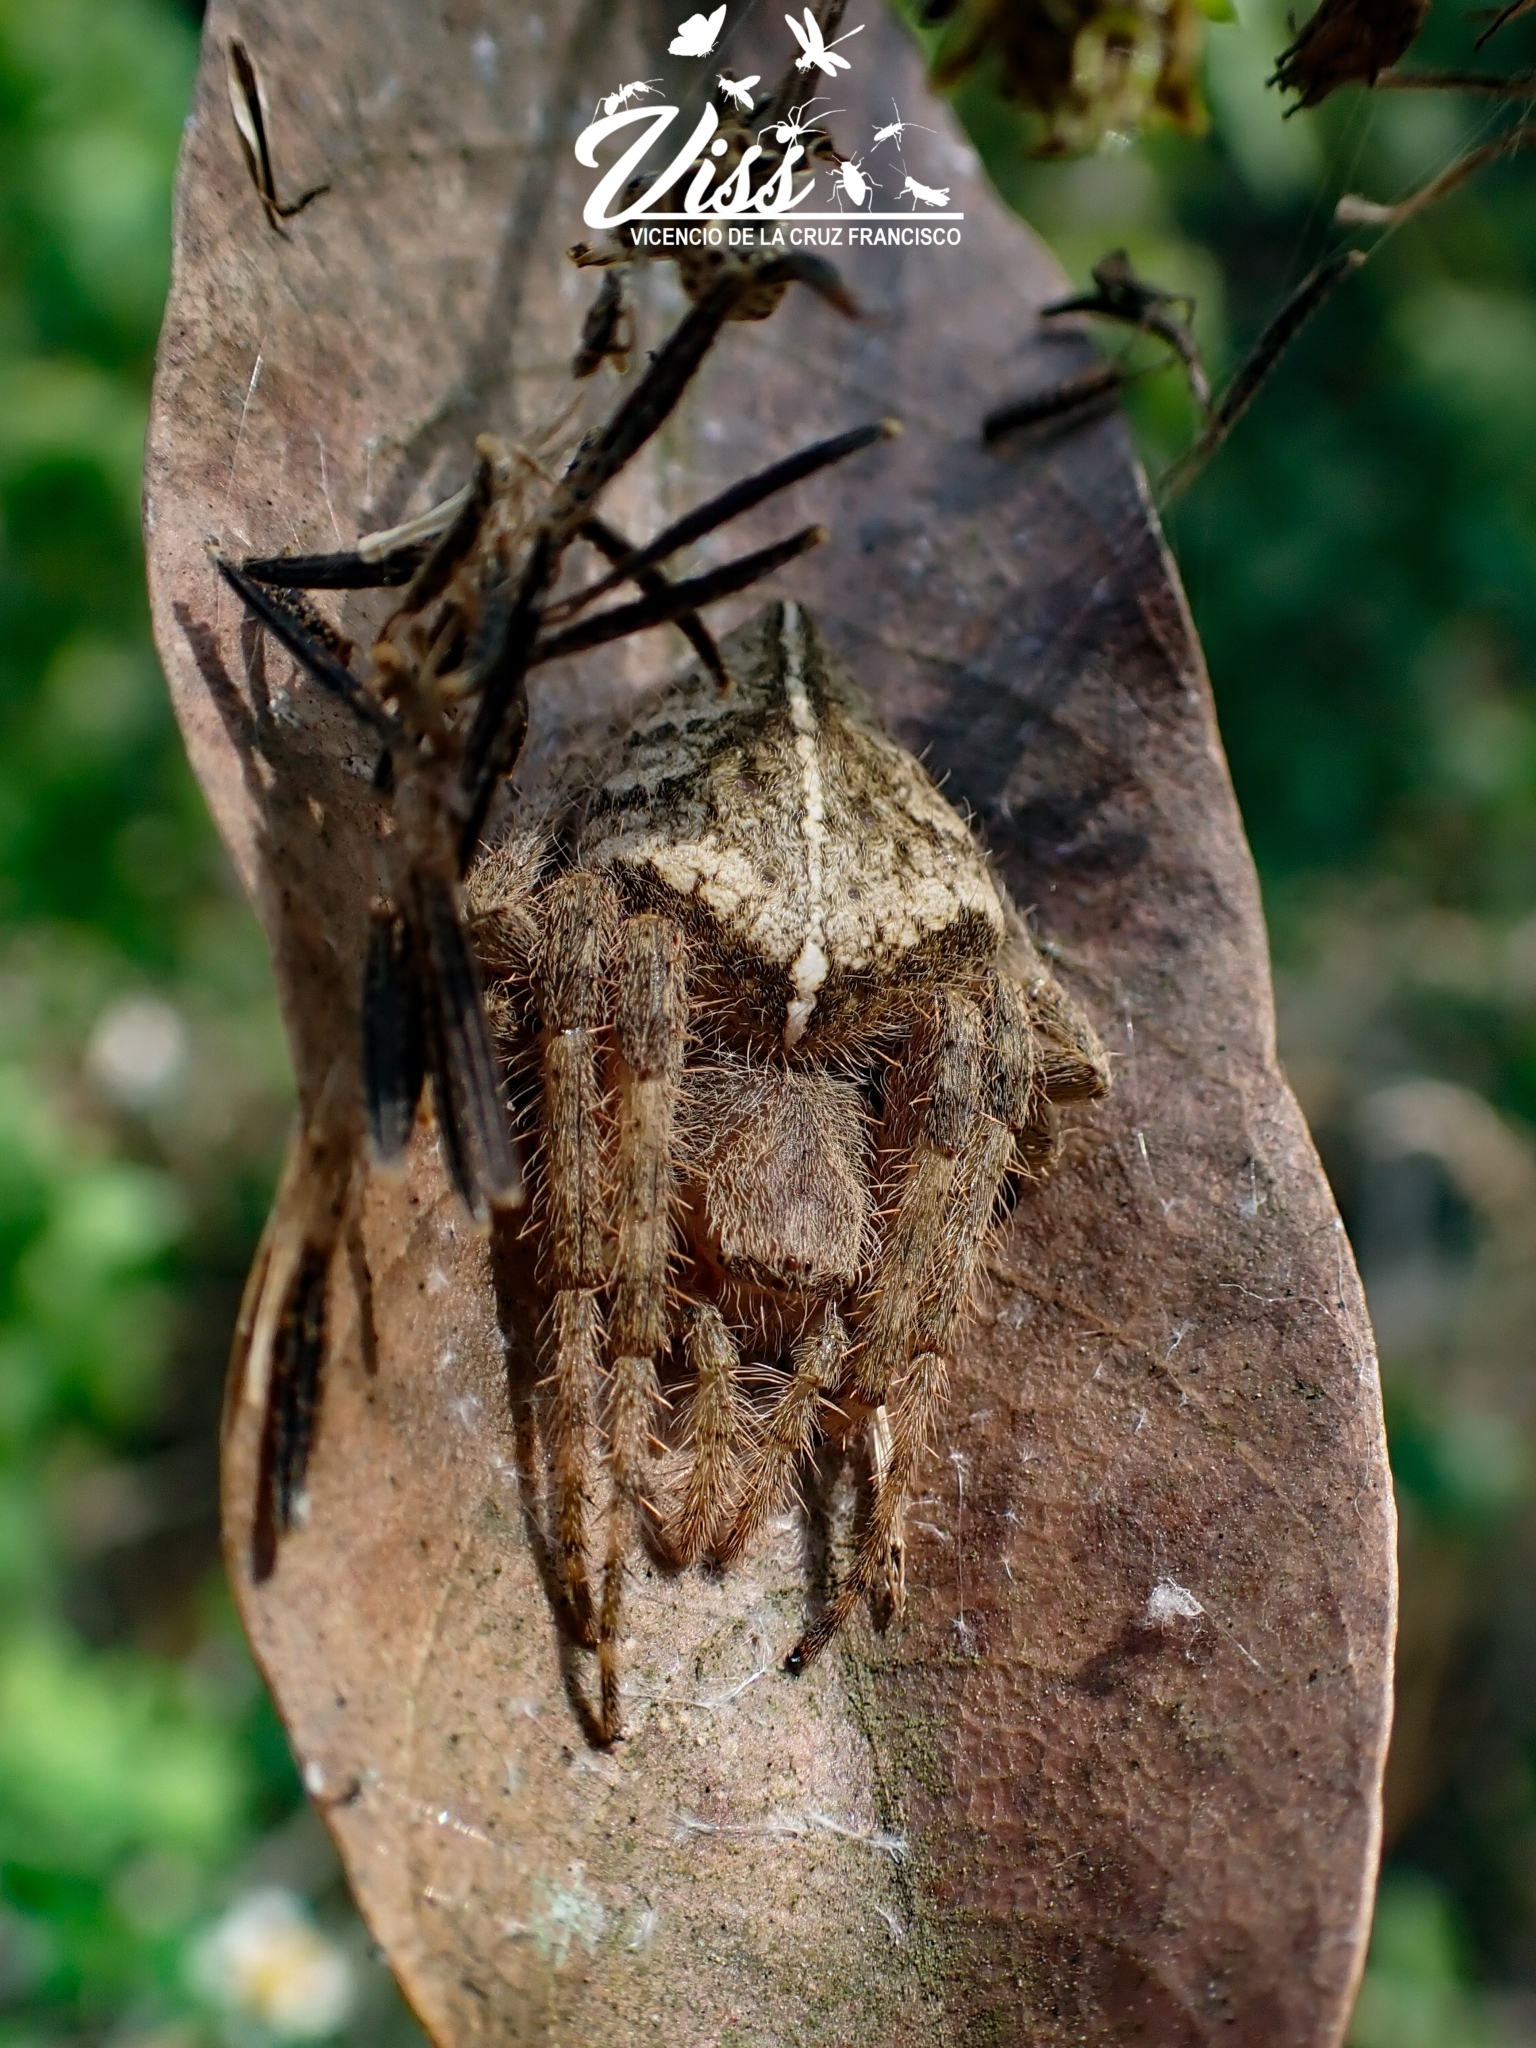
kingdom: Animalia
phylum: Arthropoda
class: Arachnida
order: Araneae
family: Araneidae
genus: Eriophora
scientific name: Eriophora edax
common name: Orb weavers
